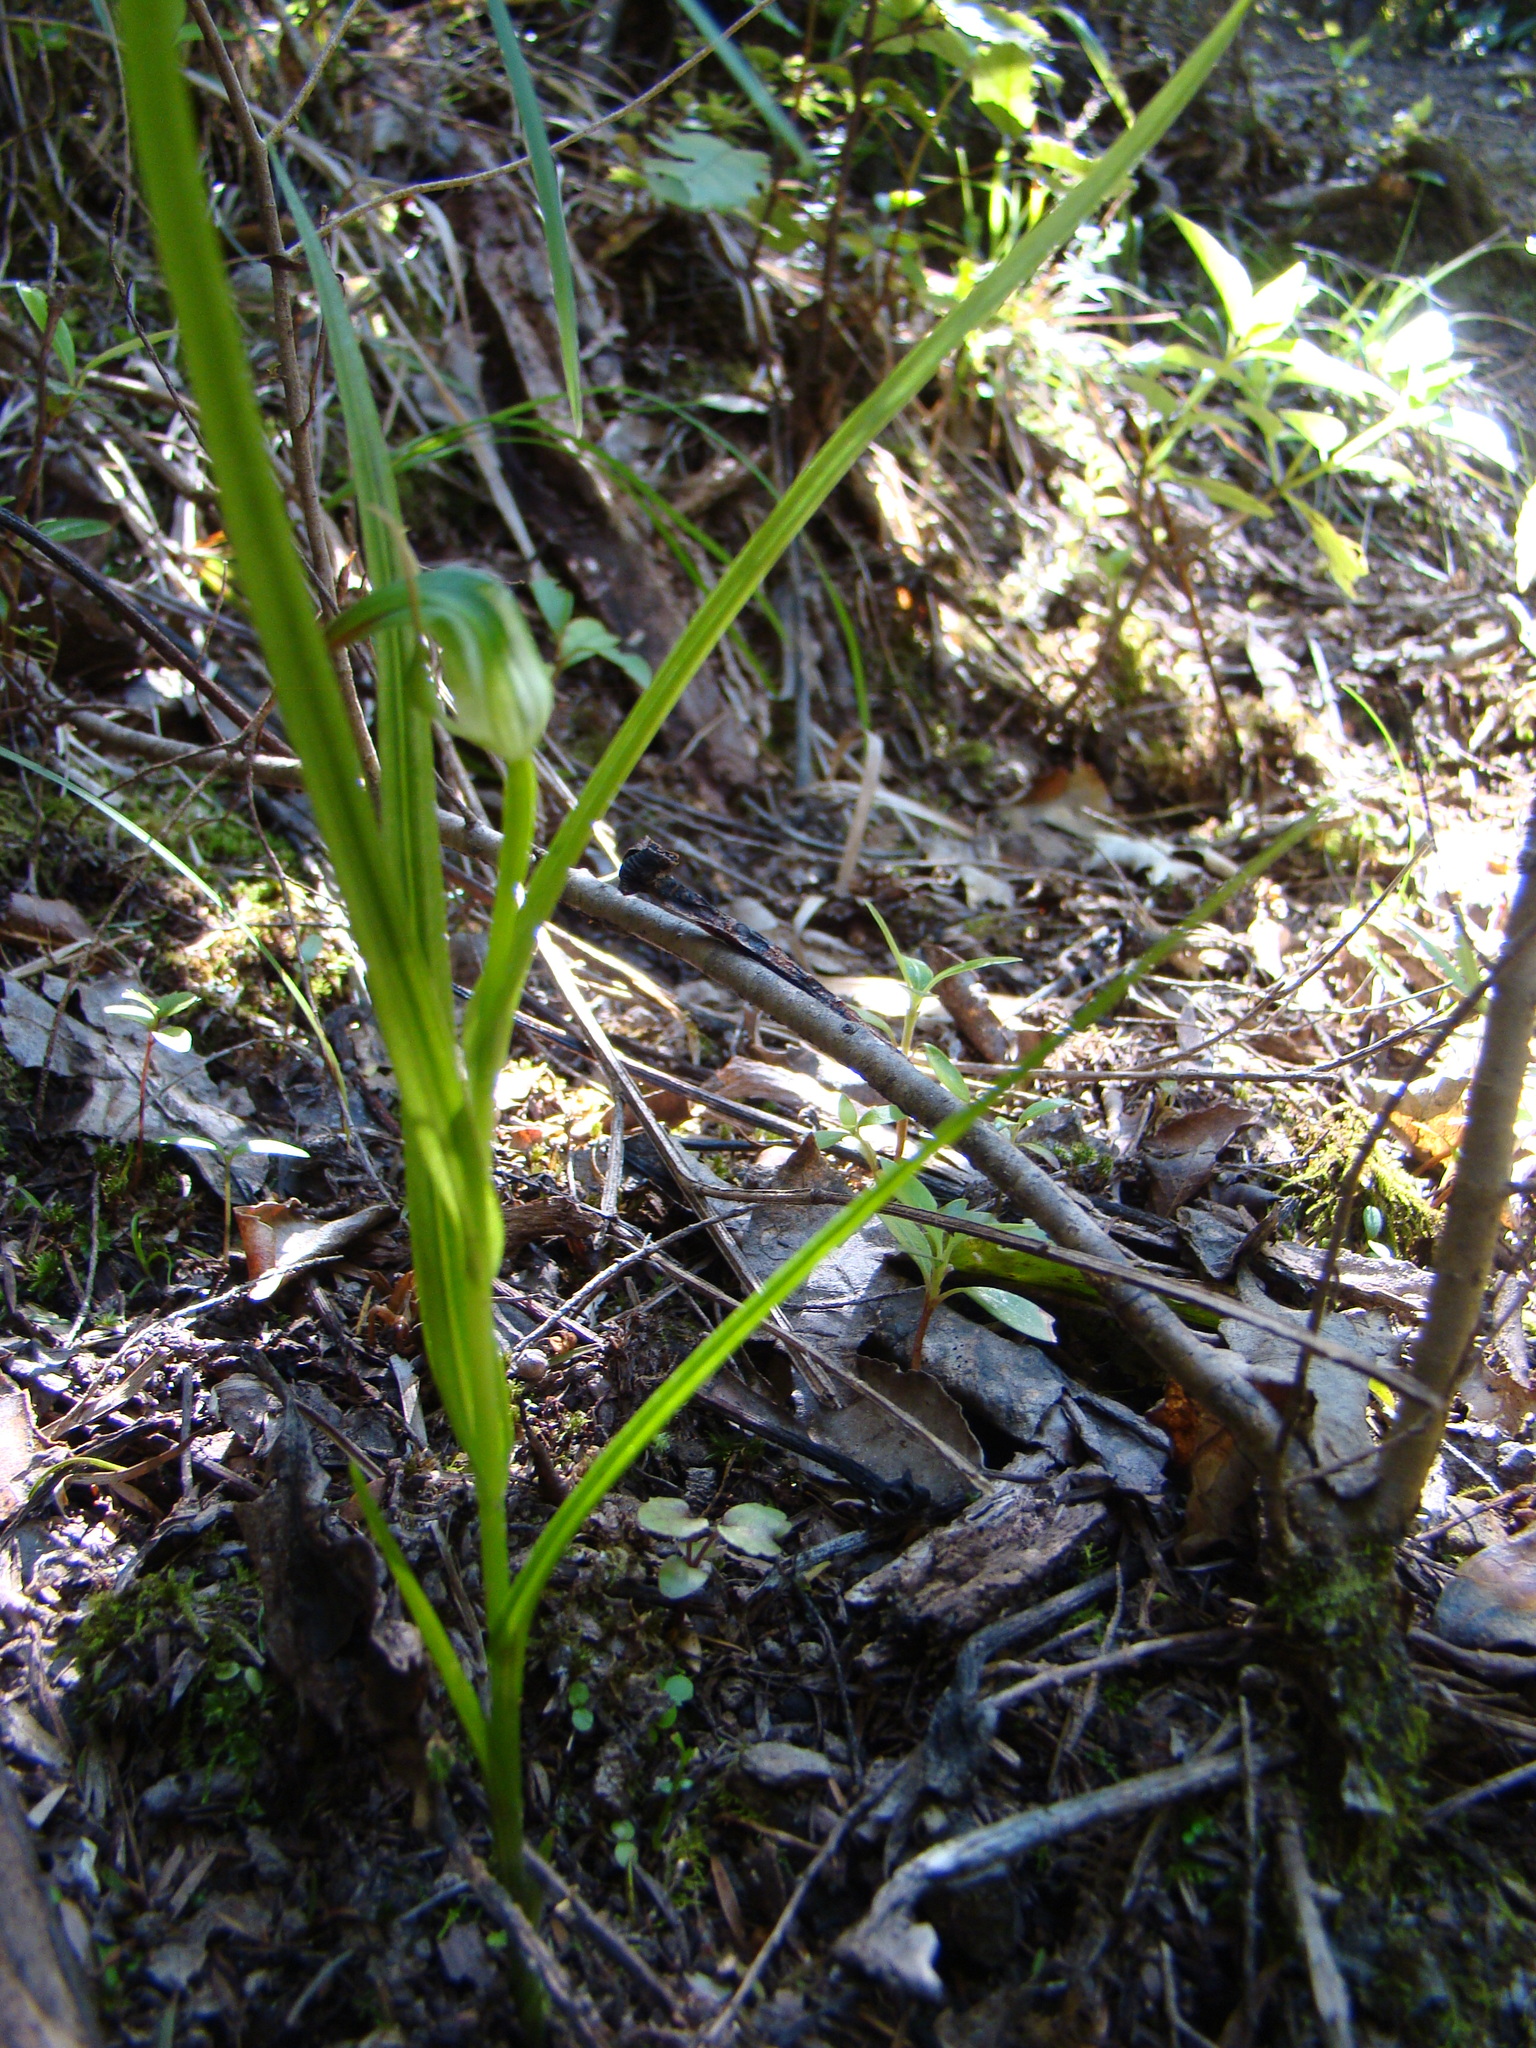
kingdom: Plantae
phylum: Tracheophyta
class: Liliopsida
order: Asparagales
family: Orchidaceae
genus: Pterostylis
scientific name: Pterostylis graminea
